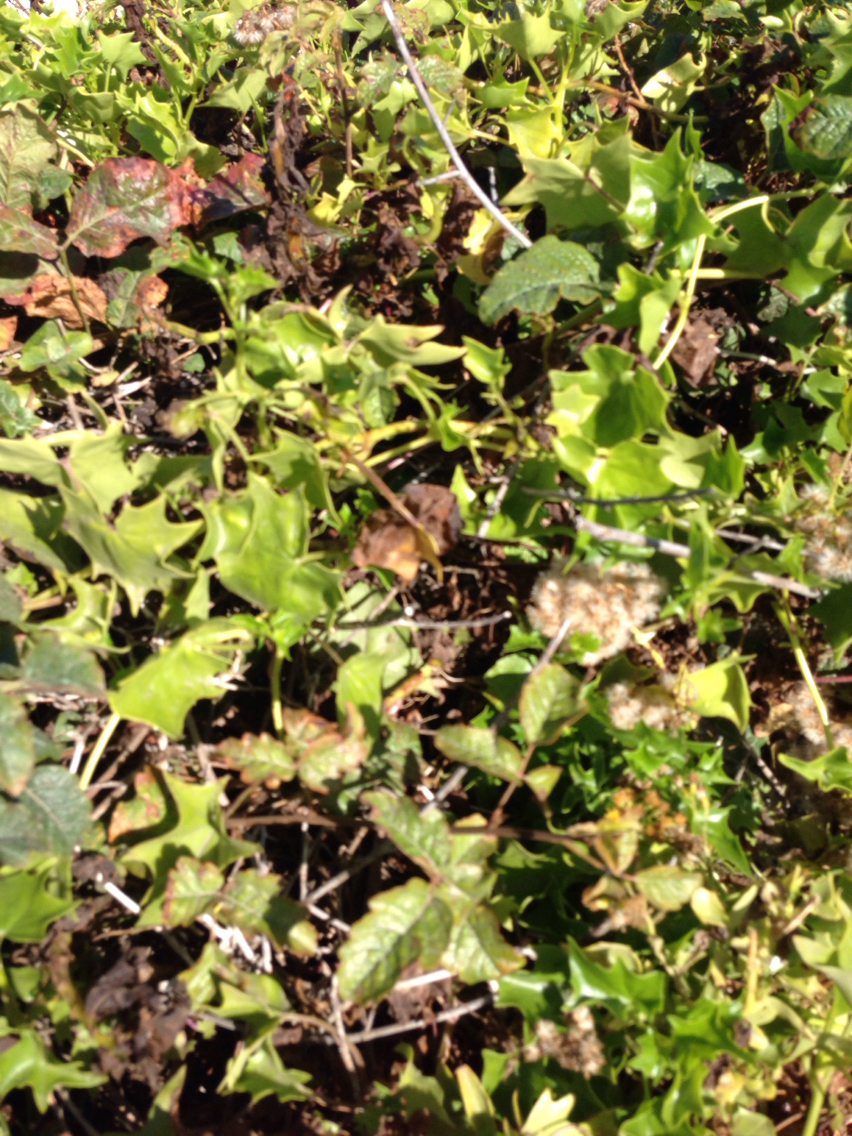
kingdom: Plantae
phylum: Tracheophyta
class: Magnoliopsida
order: Asterales
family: Asteraceae
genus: Delairea
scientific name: Delairea odorata
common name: Cape-ivy
